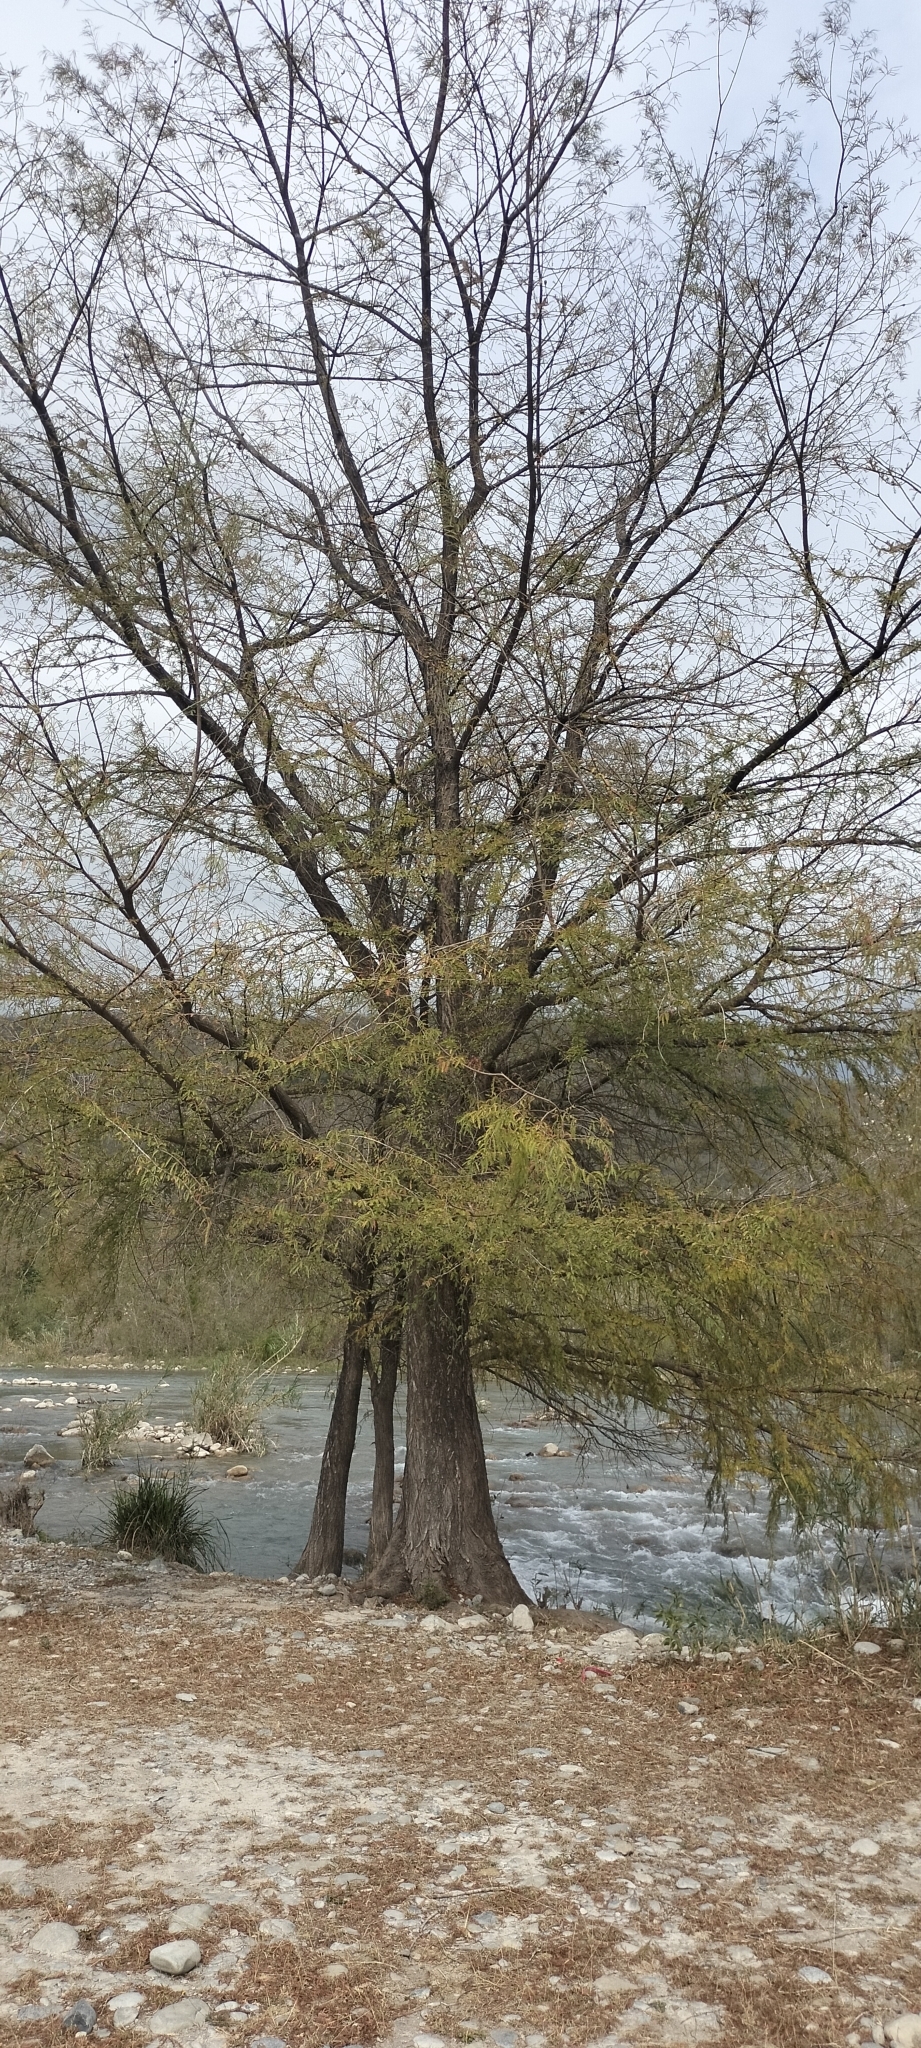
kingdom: Plantae
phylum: Tracheophyta
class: Pinopsida
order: Pinales
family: Cupressaceae
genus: Taxodium
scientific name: Taxodium mucronatum
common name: Montezume bald cypress
